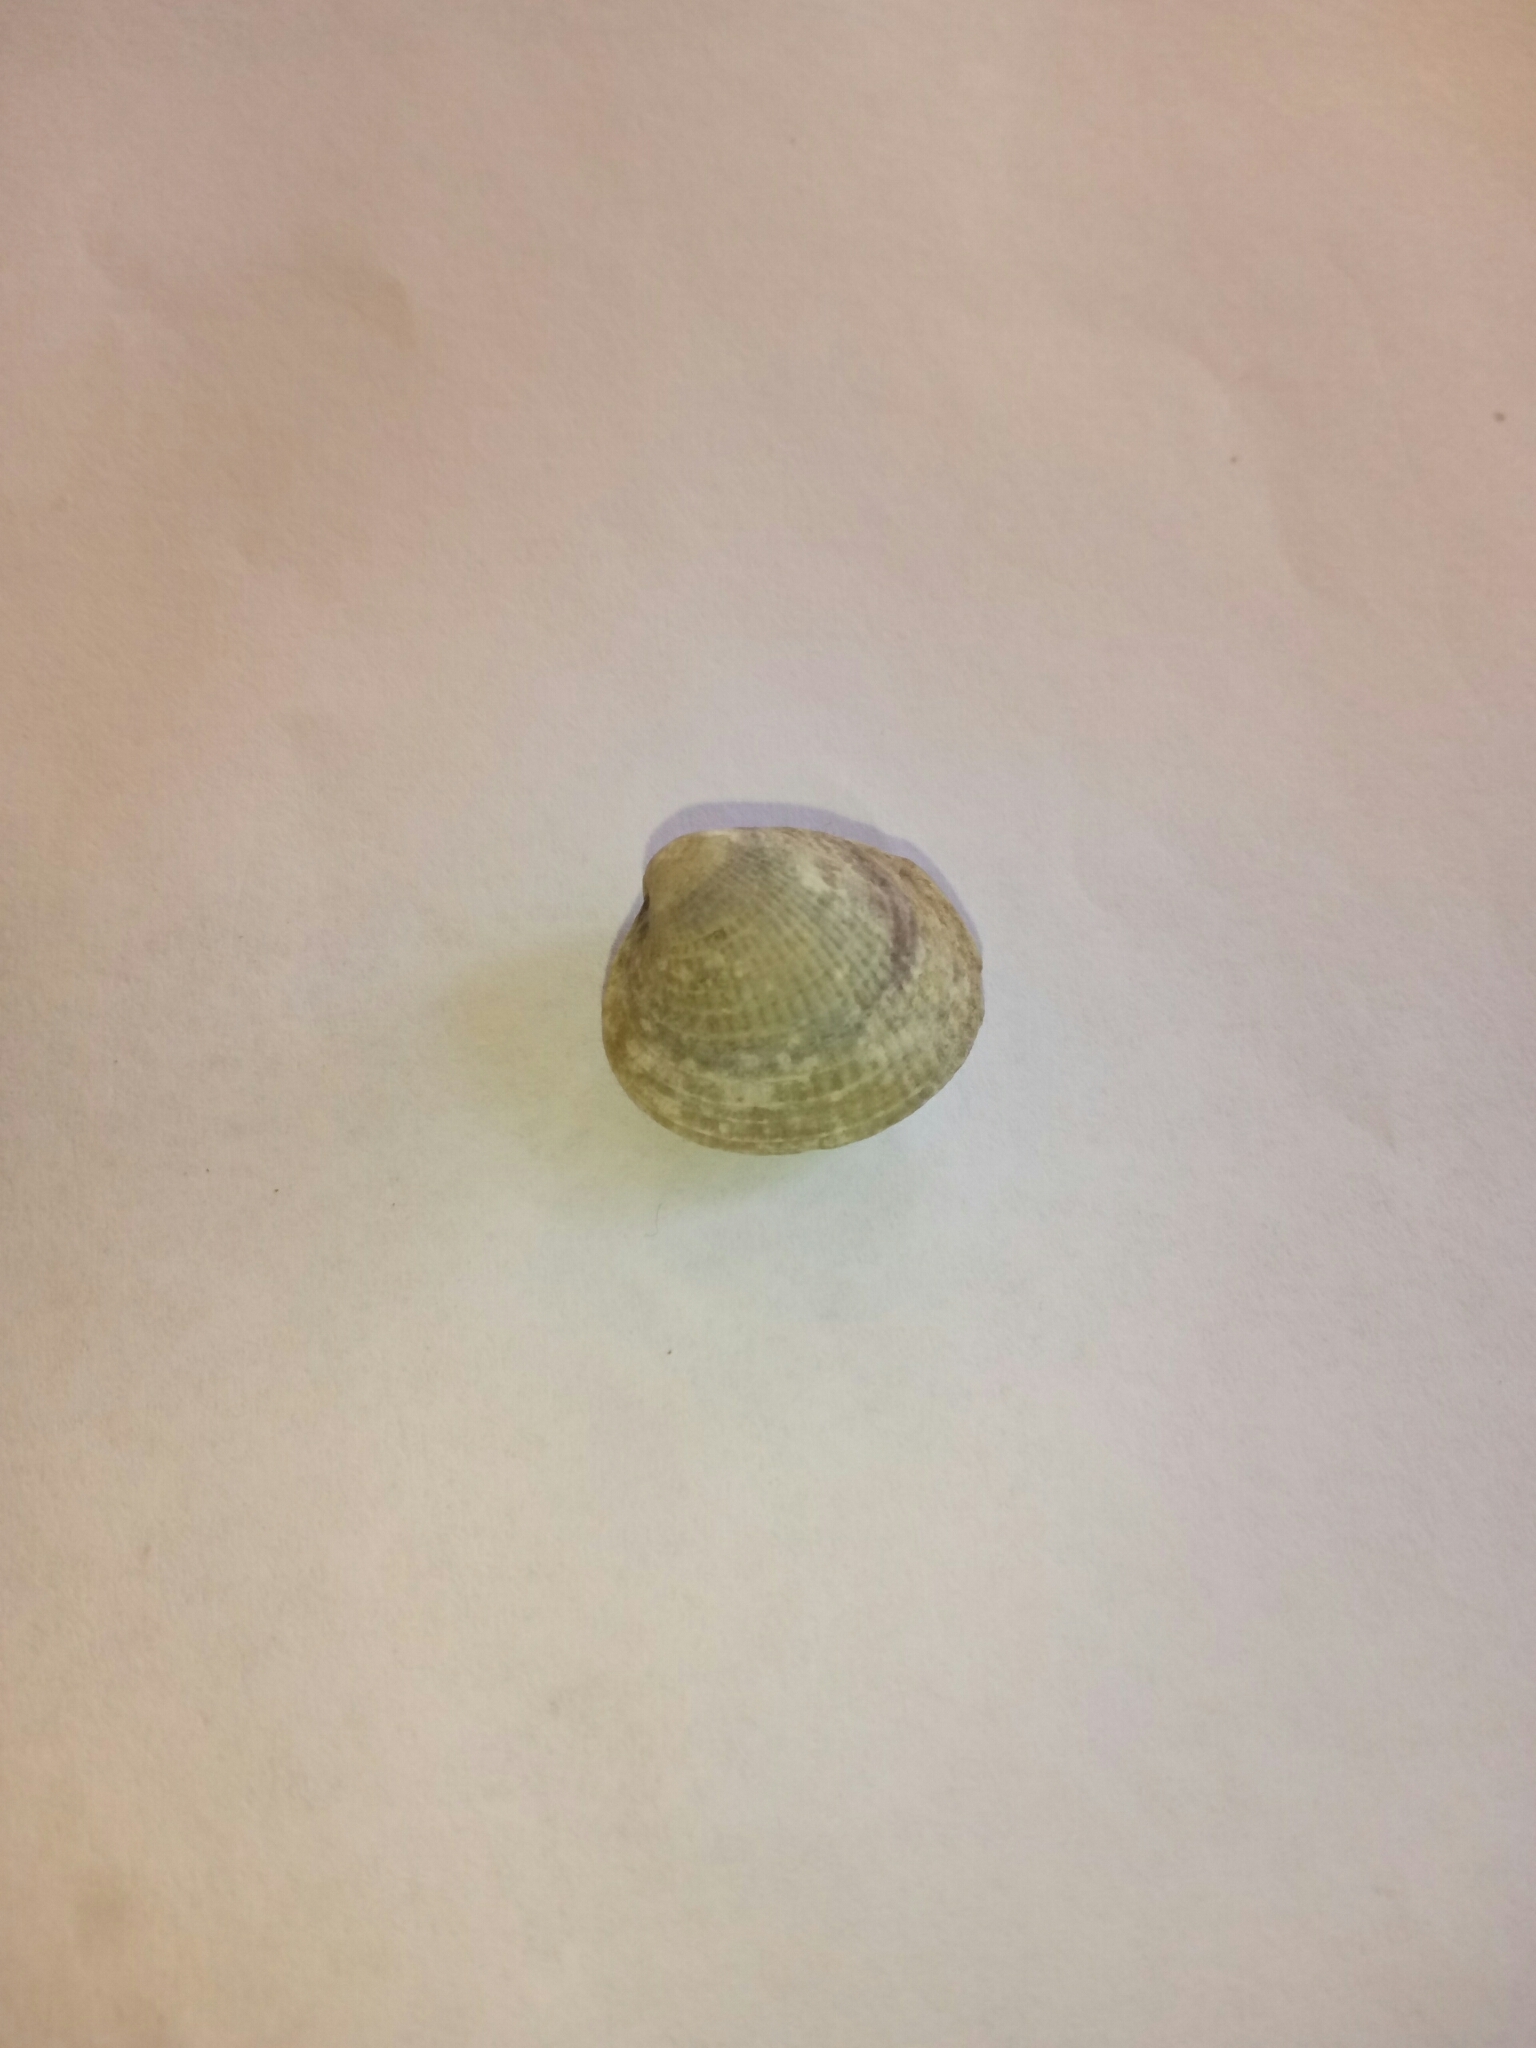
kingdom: Animalia
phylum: Mollusca
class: Bivalvia
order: Venerida
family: Veneridae
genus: Austrovenus
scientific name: Austrovenus stutchburyi
